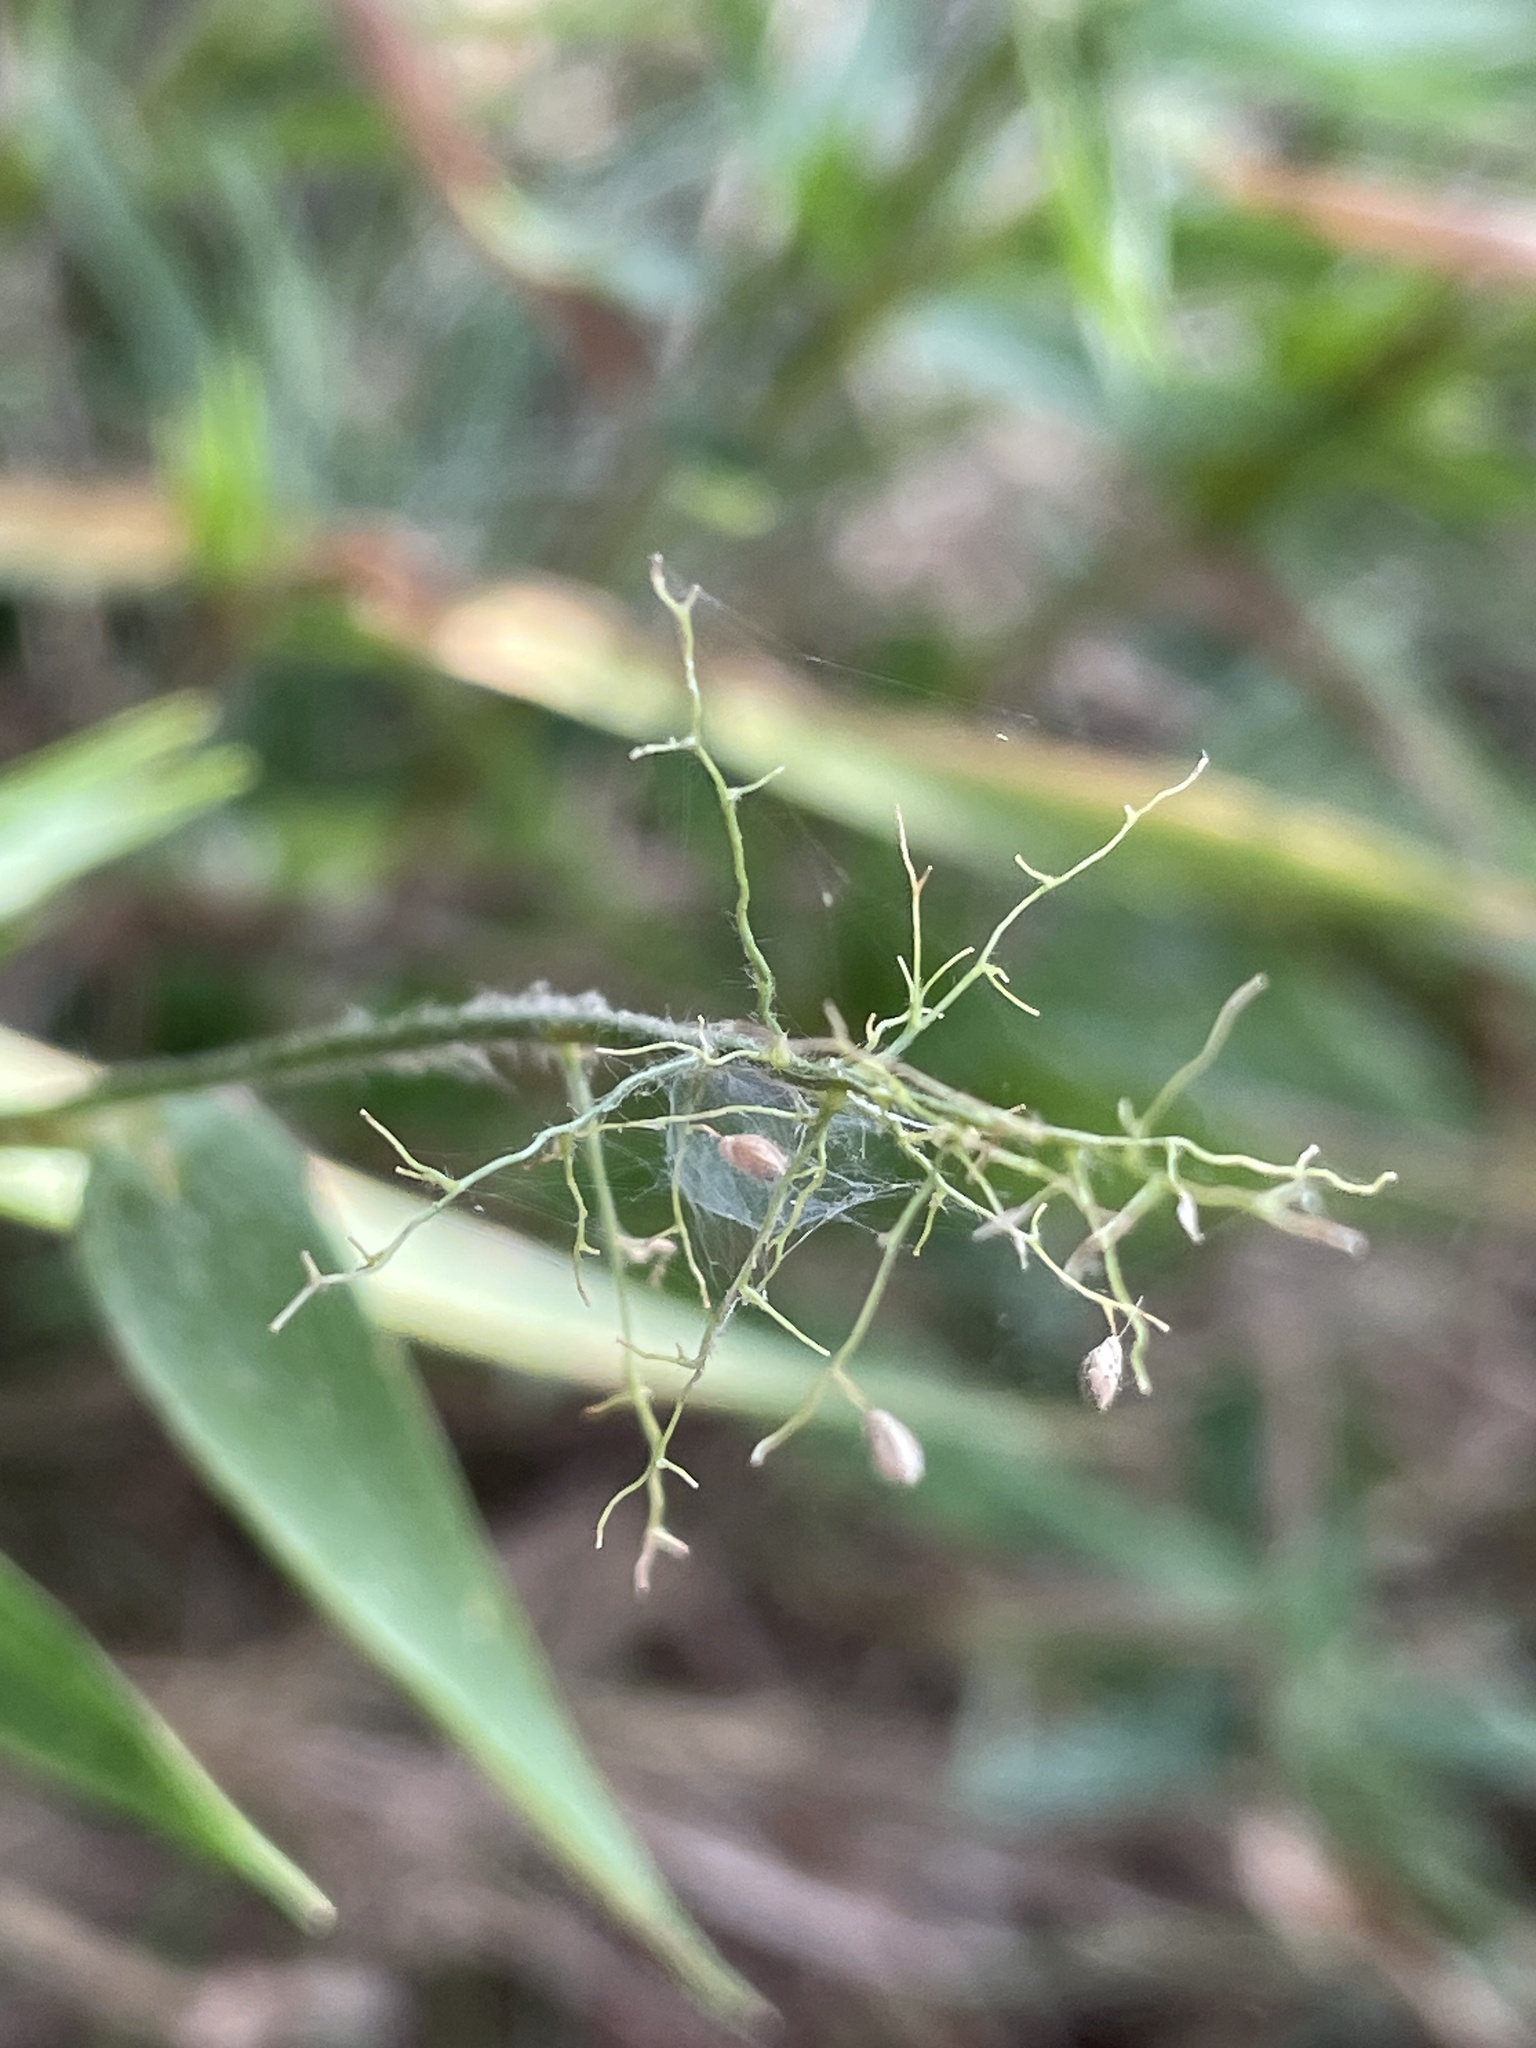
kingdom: Plantae
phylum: Tracheophyta
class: Liliopsida
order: Poales
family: Poaceae
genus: Dichanthelium
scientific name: Dichanthelium lanuginosum
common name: Woolly panicgrass
